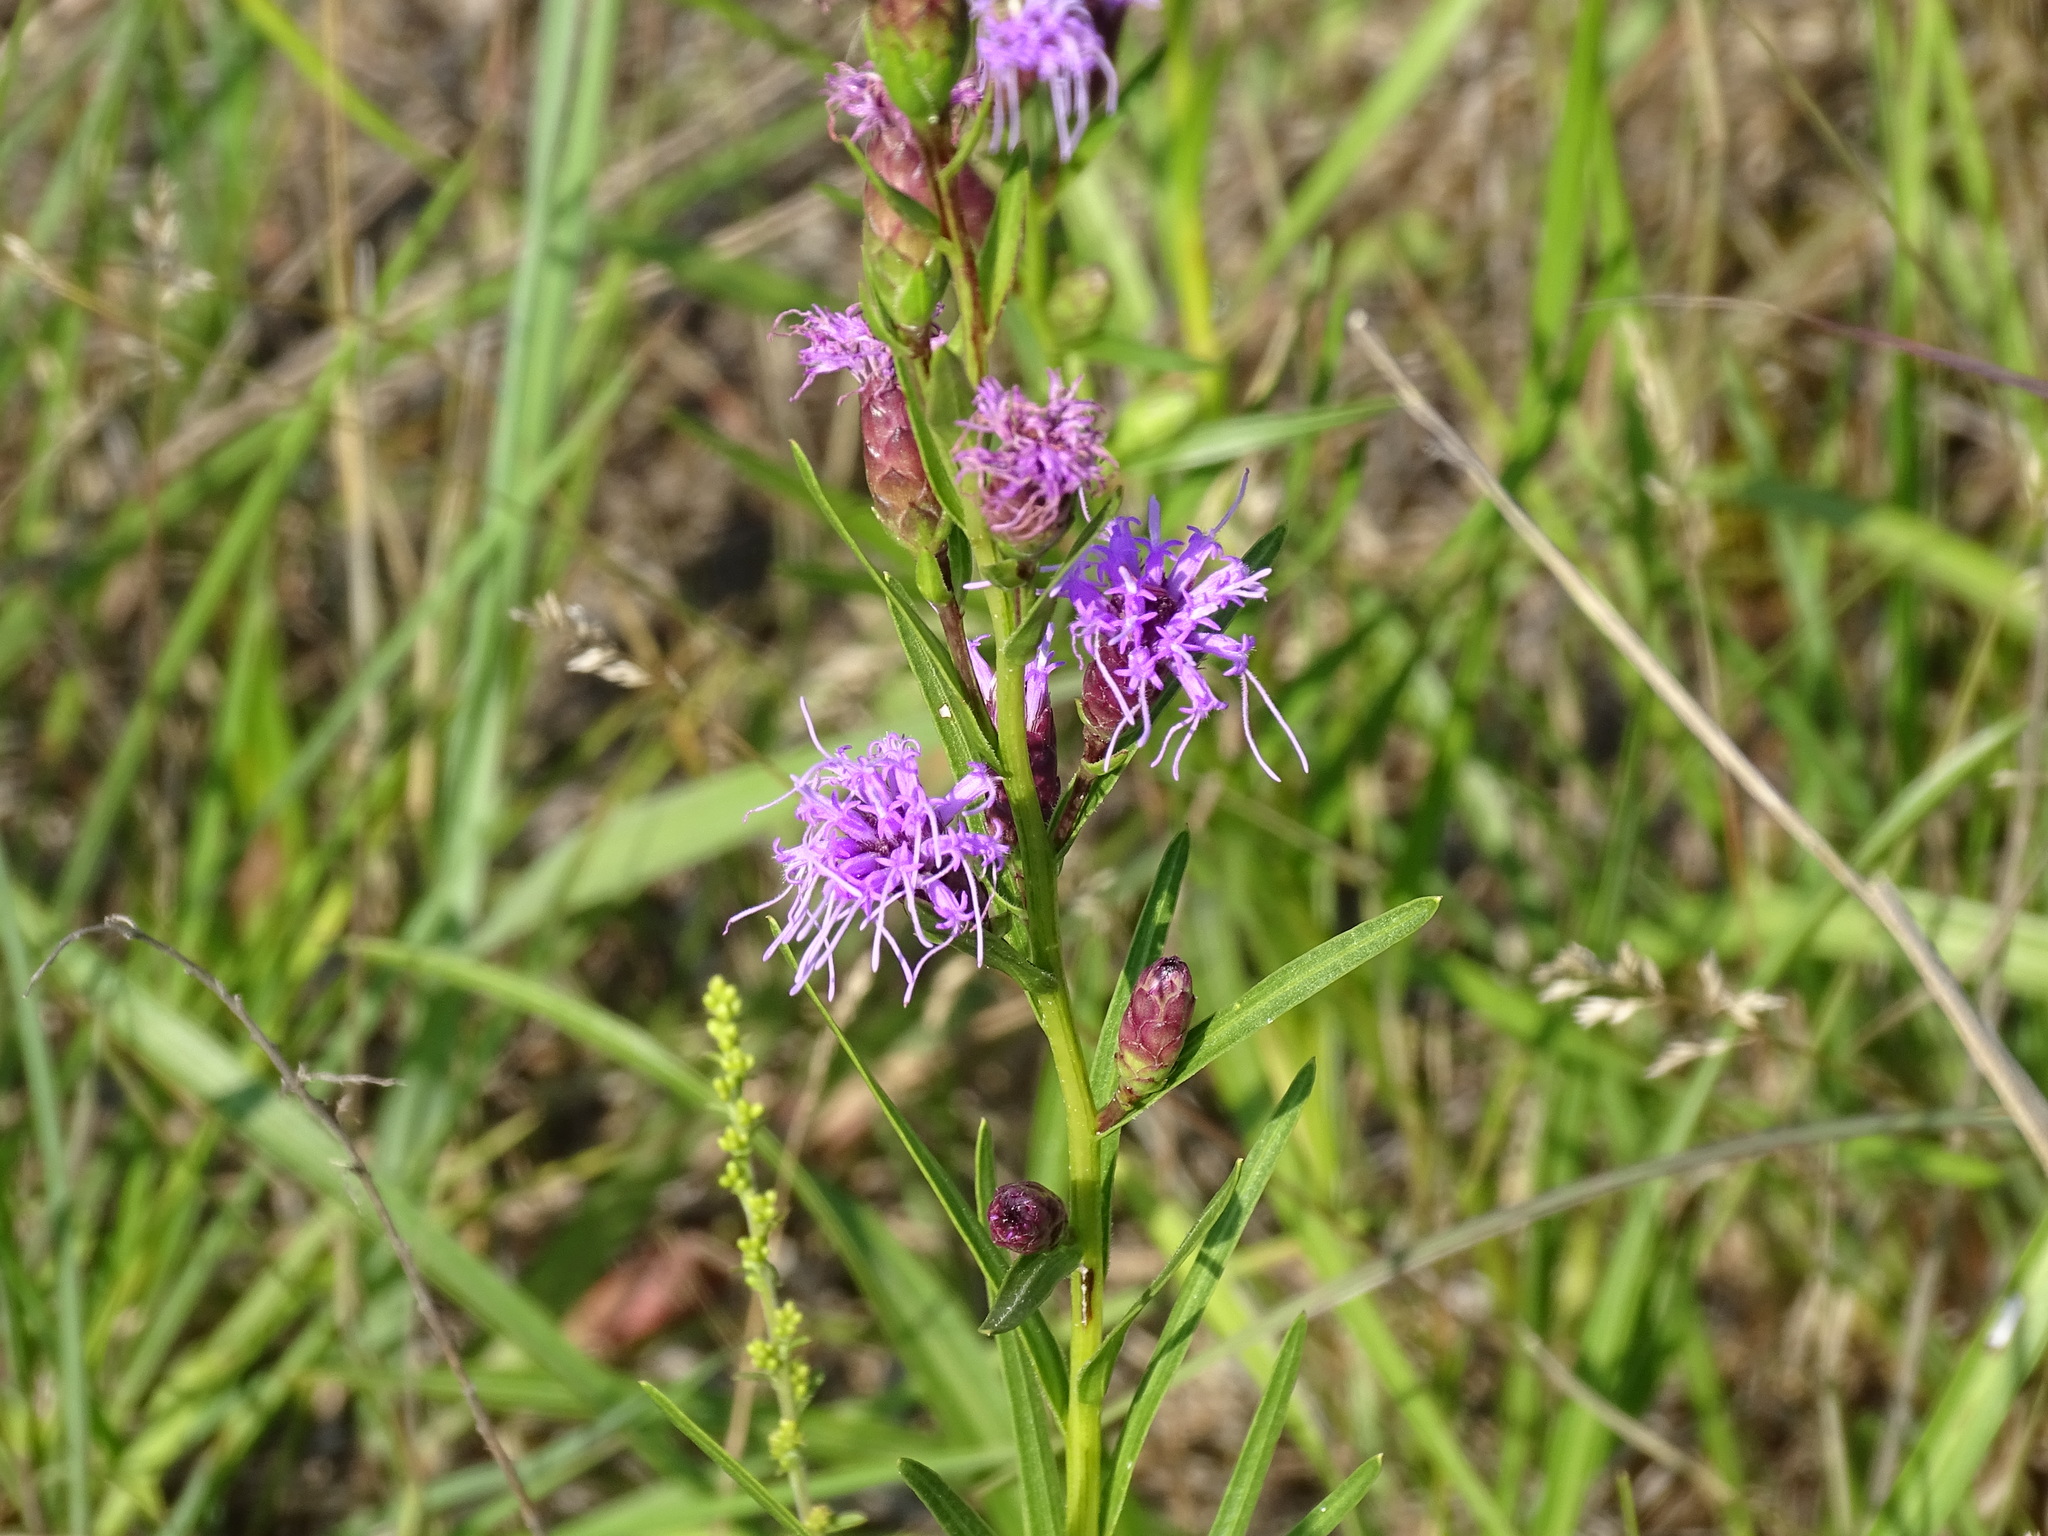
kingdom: Plantae
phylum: Tracheophyta
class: Magnoliopsida
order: Asterales
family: Asteraceae
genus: Liatris
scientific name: Liatris cylindracea
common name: Few-head blazingstar
